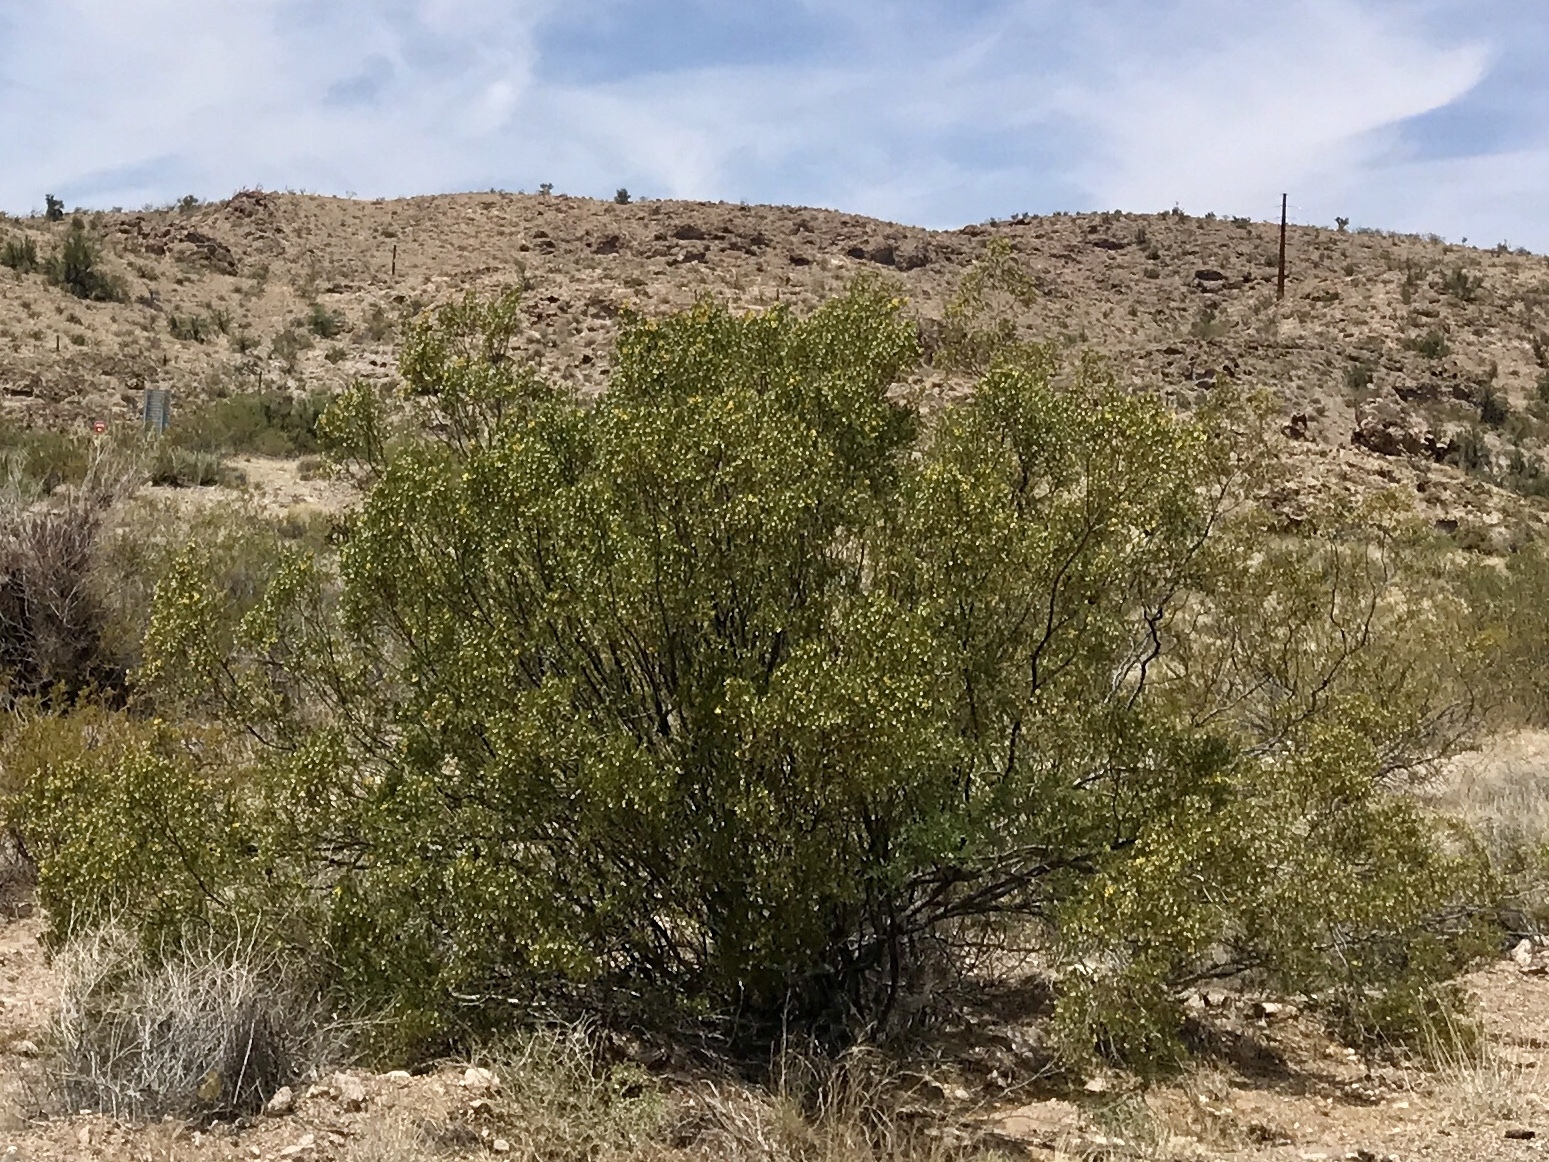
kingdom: Plantae
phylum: Tracheophyta
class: Magnoliopsida
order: Zygophyllales
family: Zygophyllaceae
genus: Larrea
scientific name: Larrea tridentata
